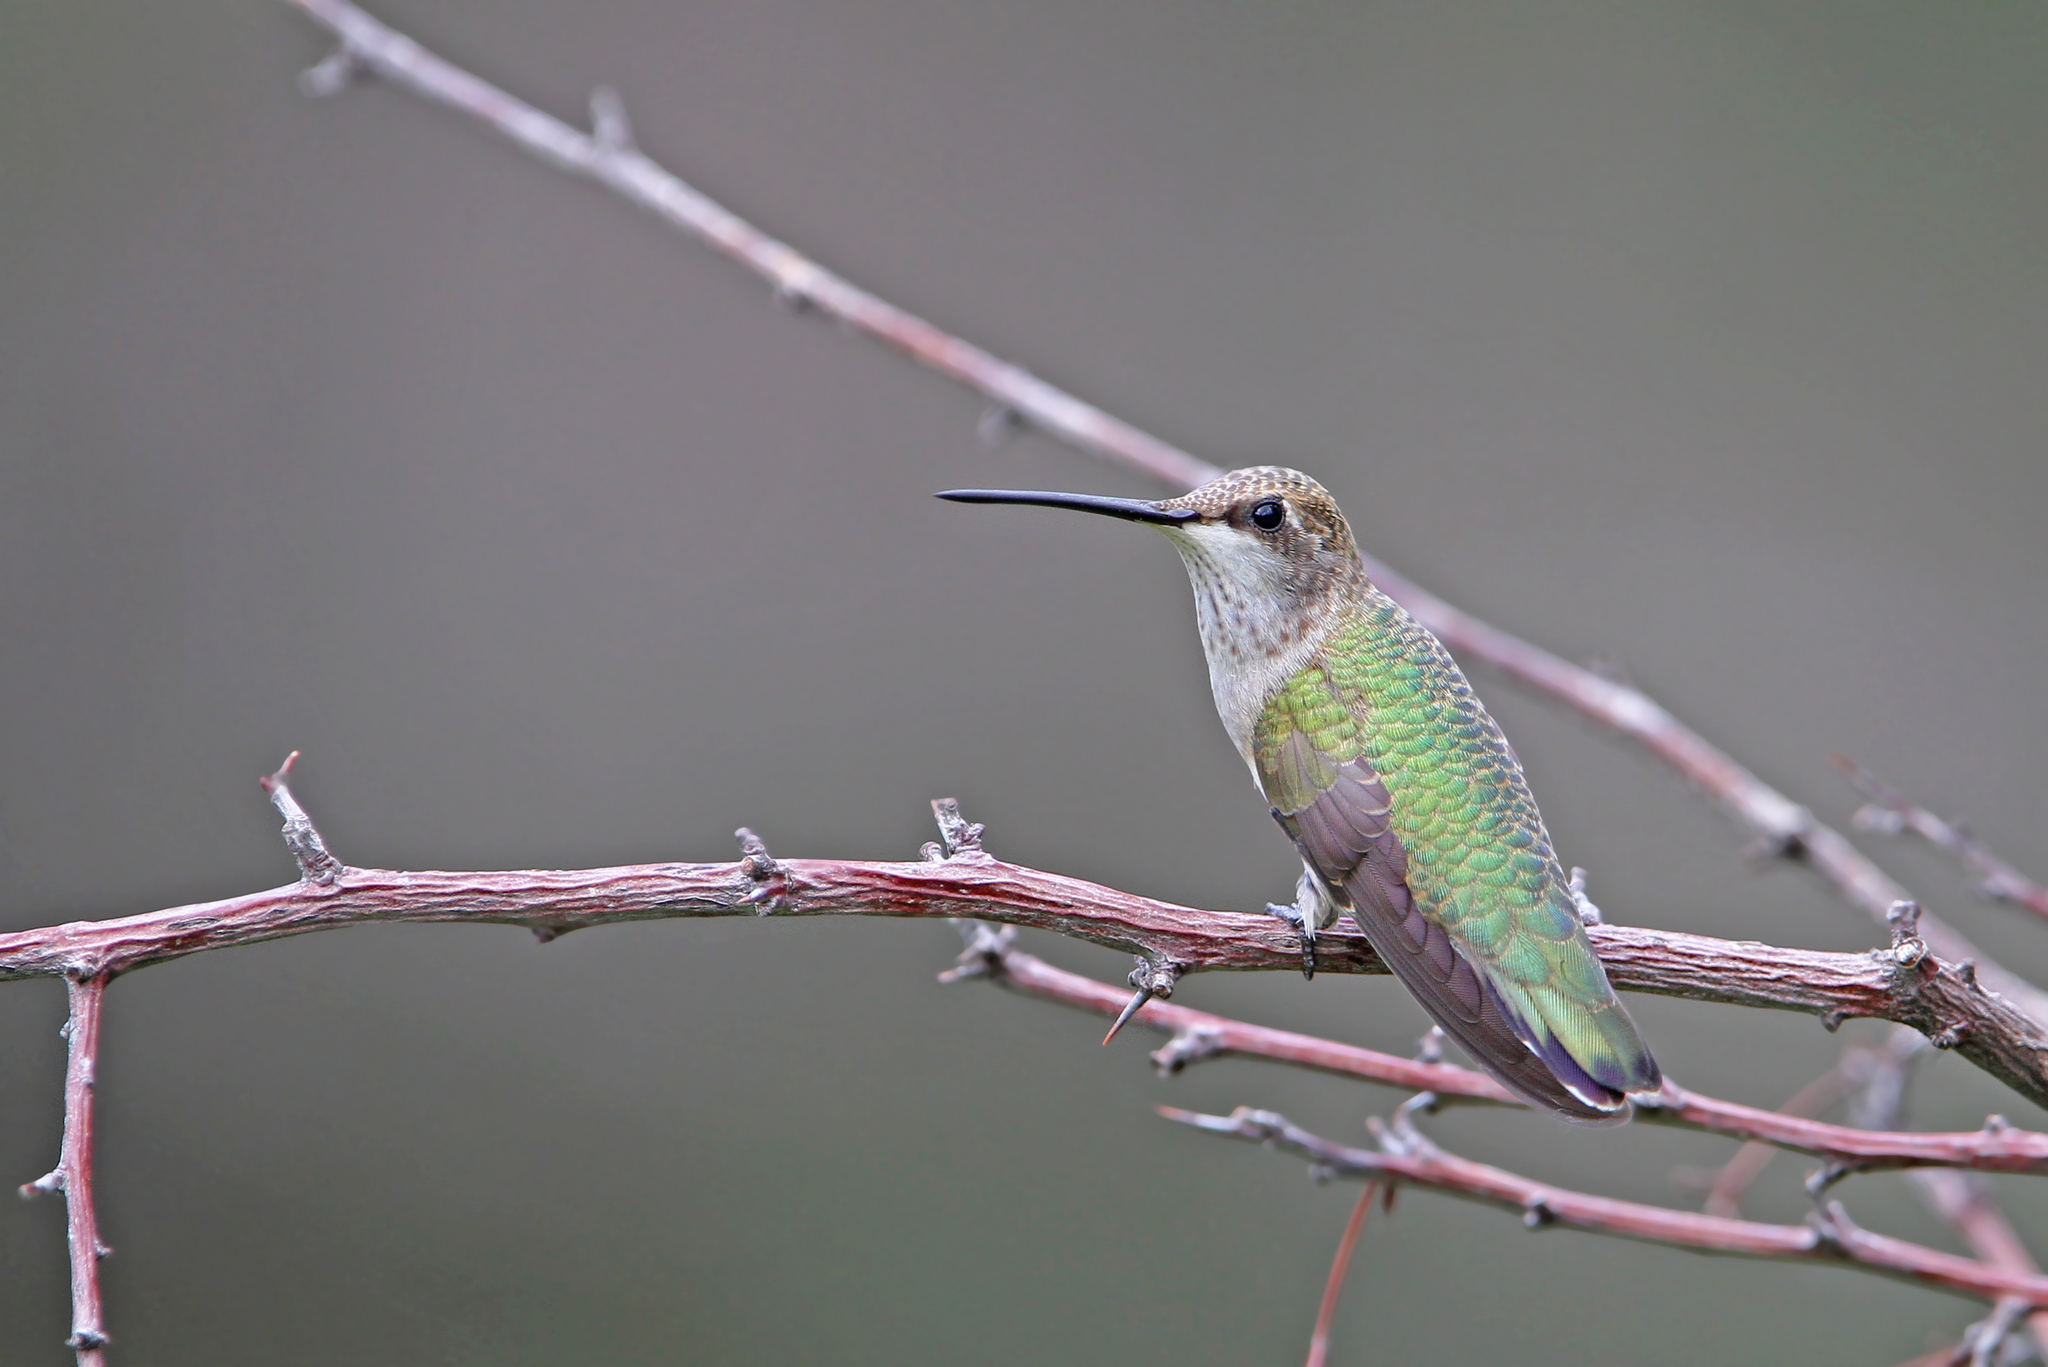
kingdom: Animalia
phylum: Chordata
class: Aves
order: Apodiformes
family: Trochilidae
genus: Archilochus
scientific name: Archilochus alexandri
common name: Black-chinned hummingbird
